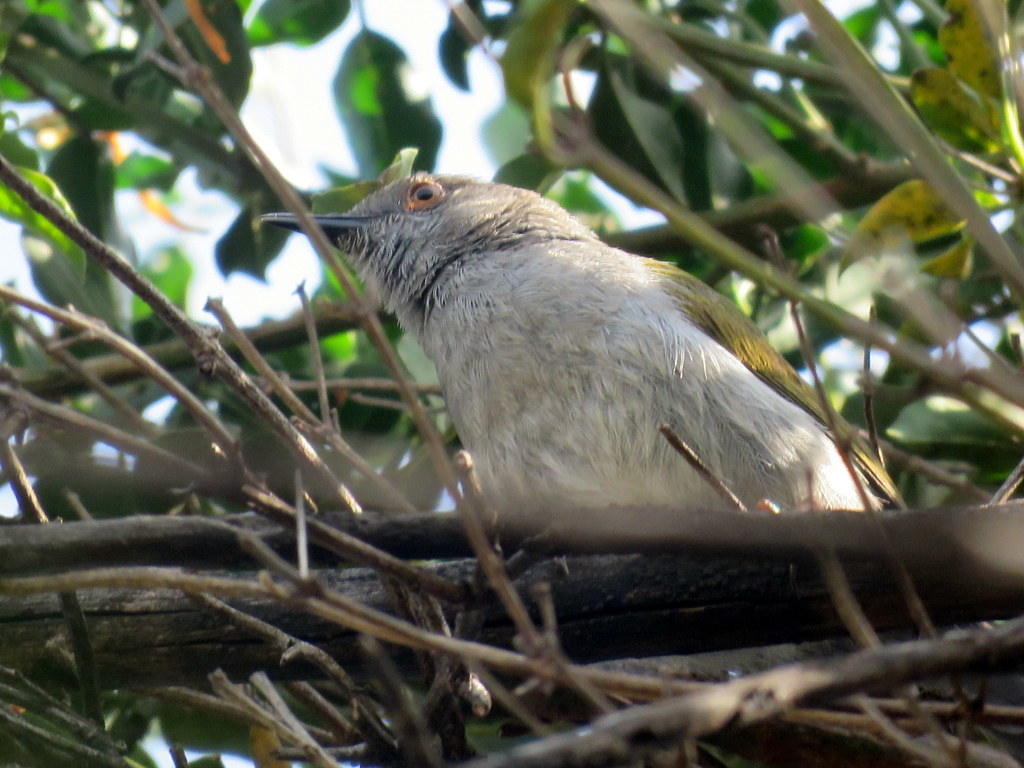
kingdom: Animalia
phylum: Chordata
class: Aves
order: Passeriformes
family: Cisticolidae
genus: Camaroptera
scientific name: Camaroptera brachyura
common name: Green-backed camaroptera
